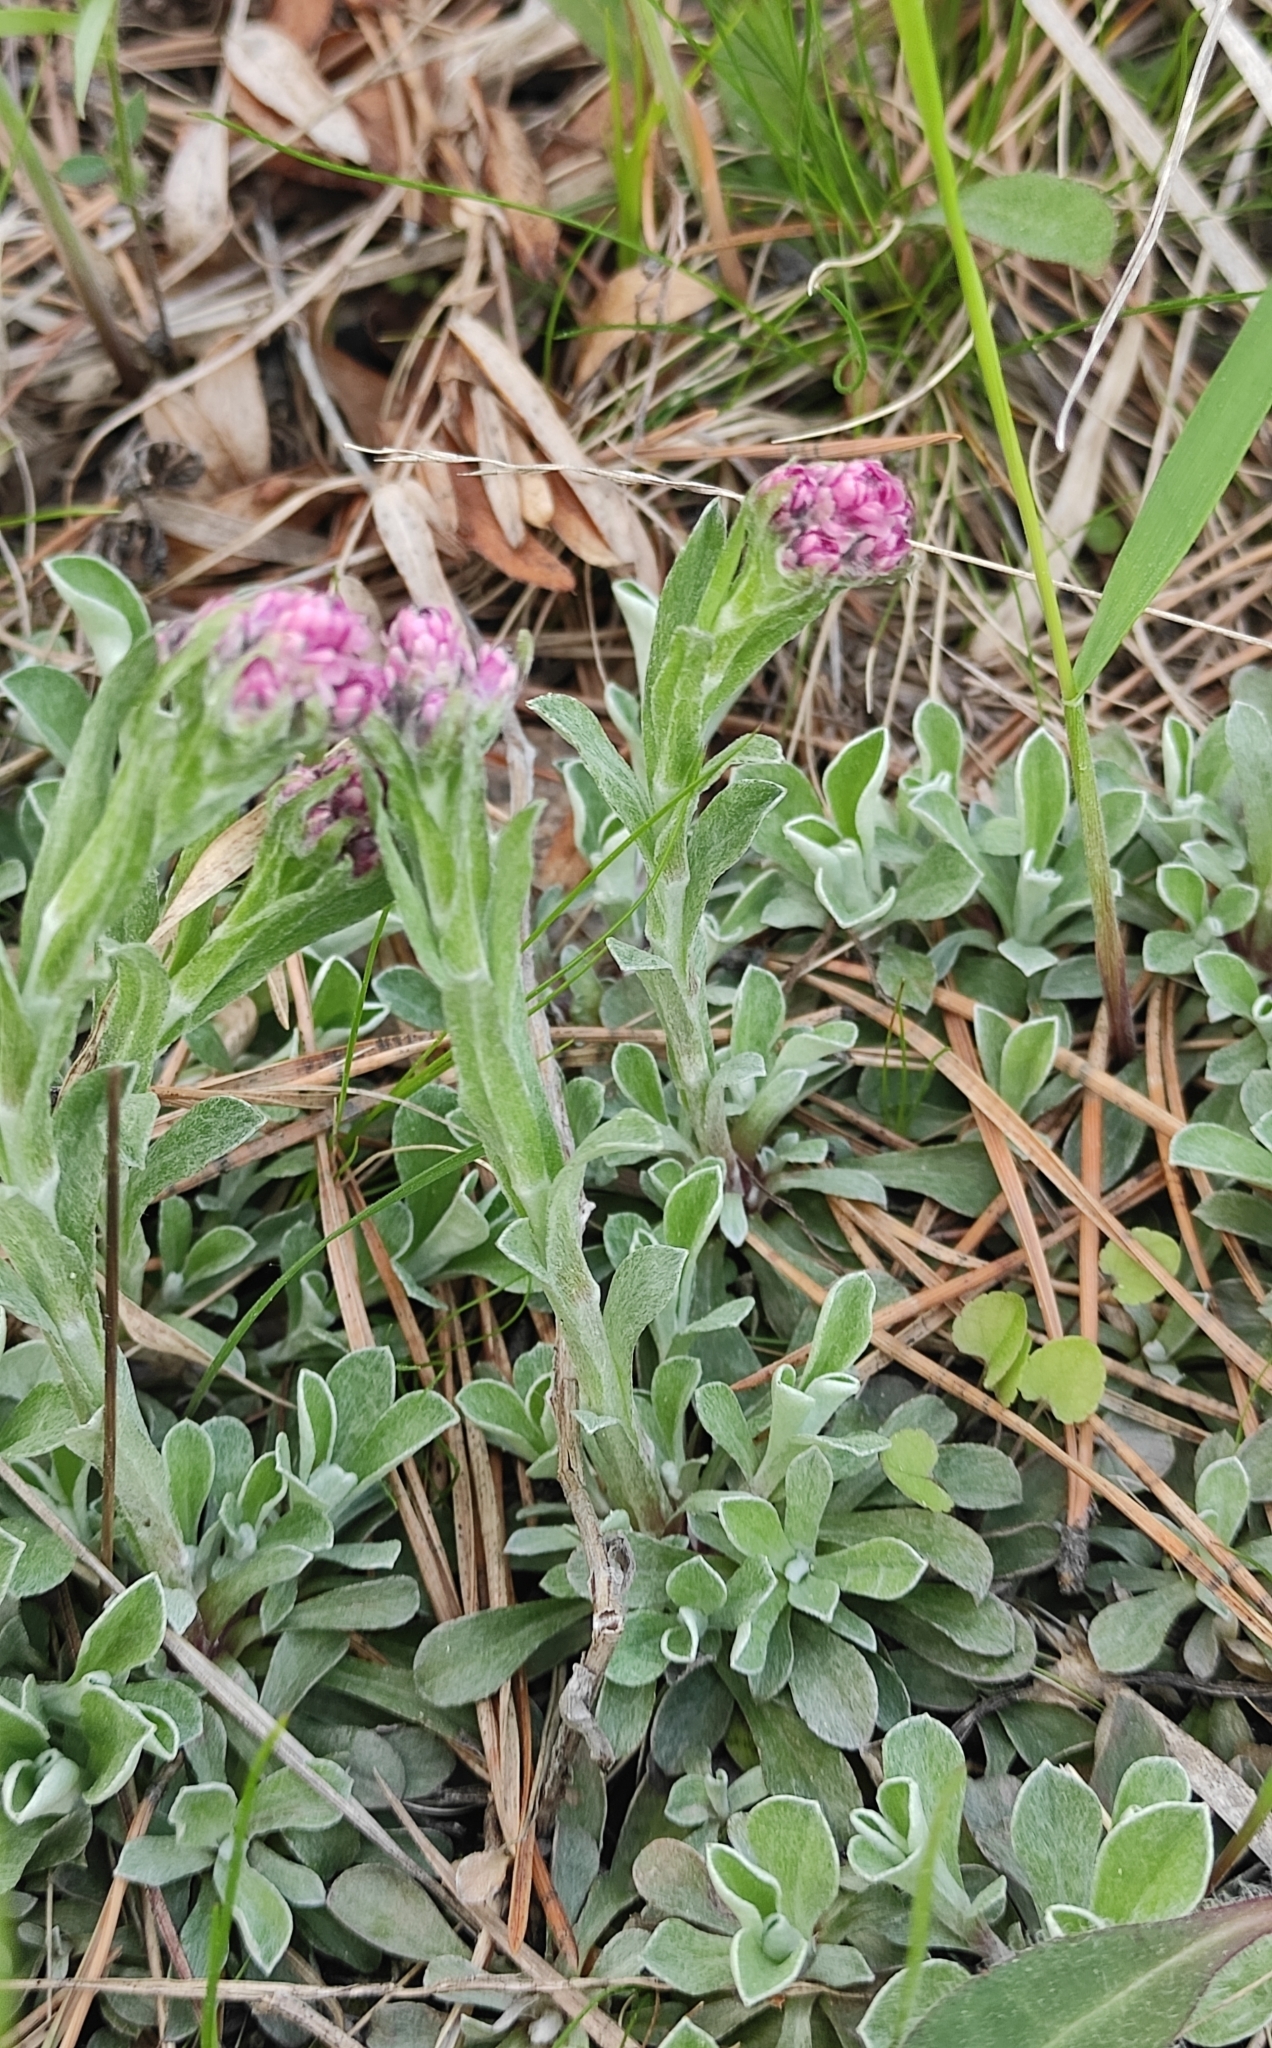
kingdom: Plantae
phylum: Tracheophyta
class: Magnoliopsida
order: Asterales
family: Asteraceae
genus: Antennaria
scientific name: Antennaria dioica
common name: Mountain everlasting
